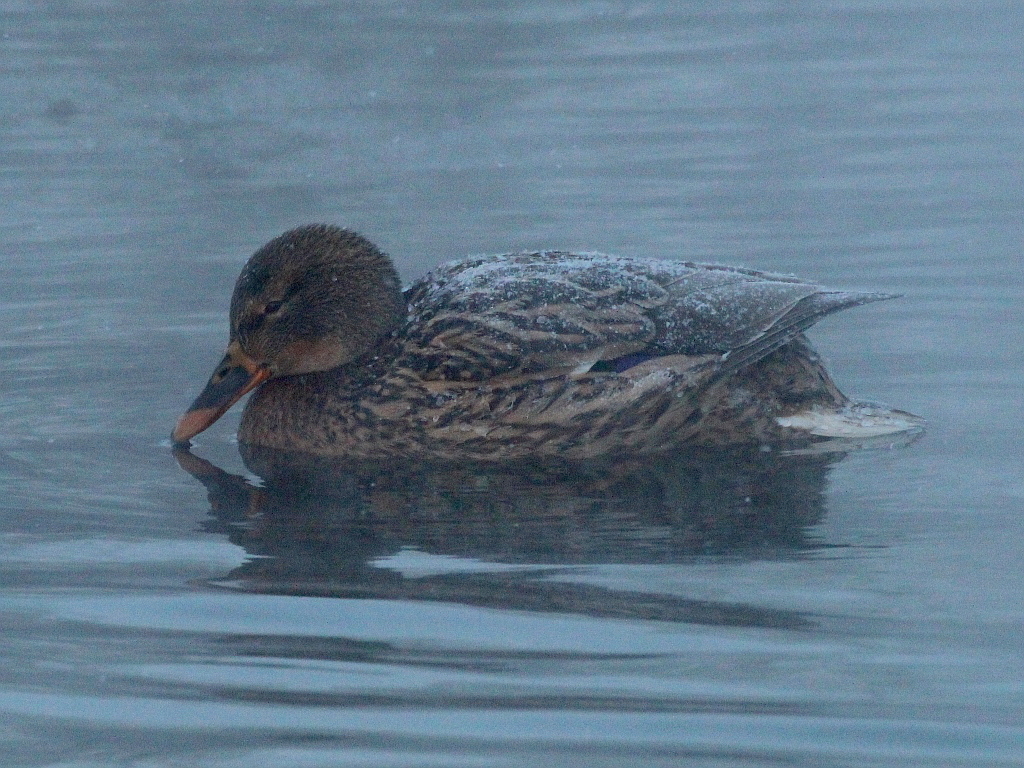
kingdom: Animalia
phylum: Chordata
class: Aves
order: Anseriformes
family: Anatidae
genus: Anas
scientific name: Anas platyrhynchos
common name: Mallard
